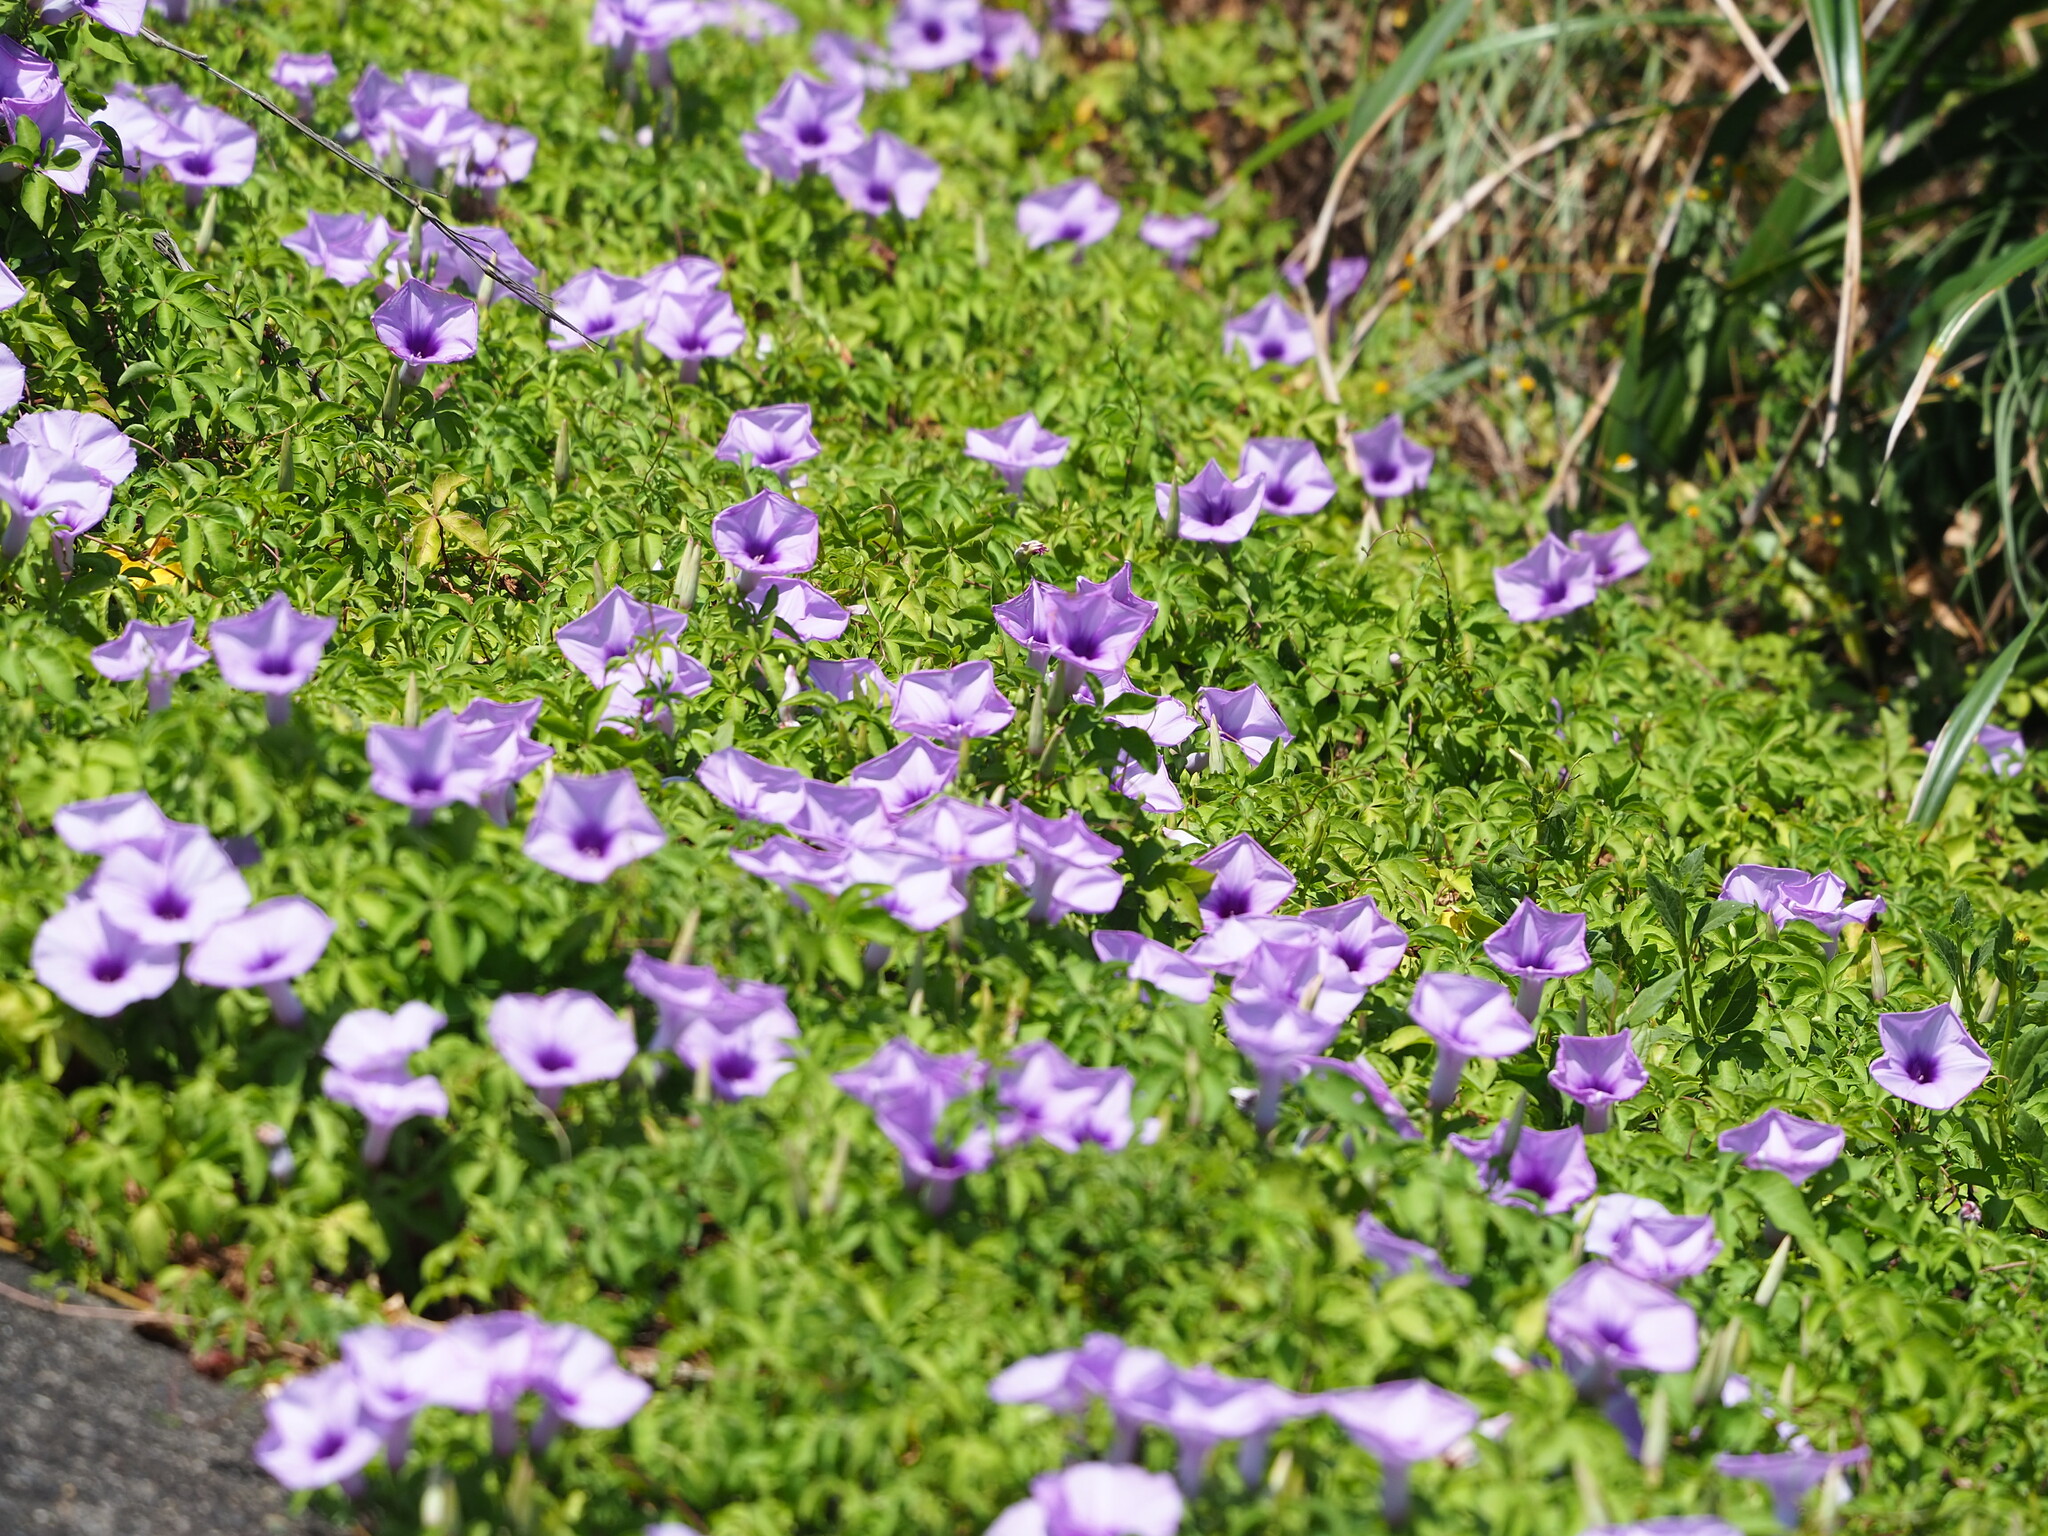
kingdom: Plantae
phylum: Tracheophyta
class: Magnoliopsida
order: Solanales
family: Convolvulaceae
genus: Ipomoea
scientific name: Ipomoea cairica
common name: Mile a minute vine
